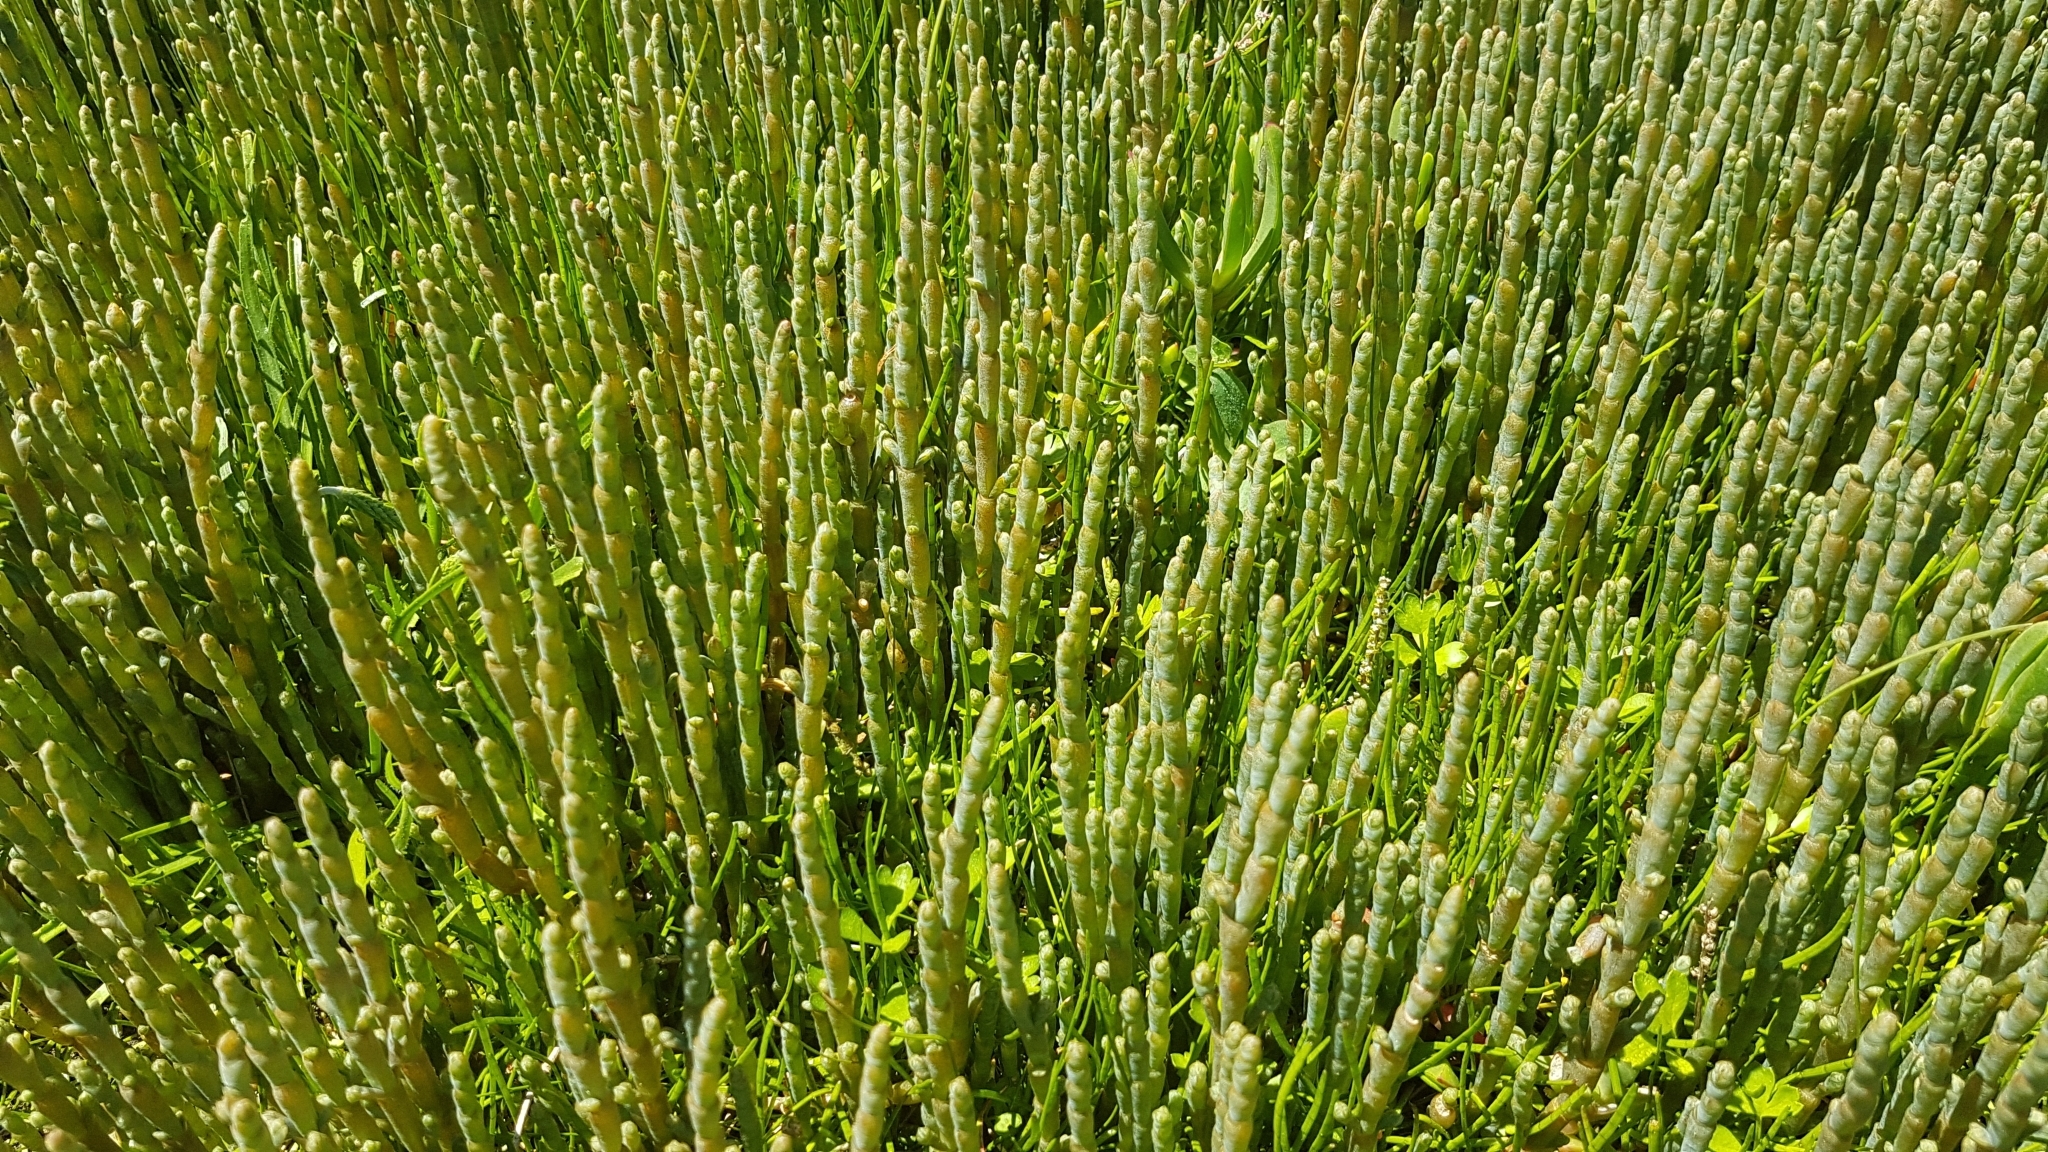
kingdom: Plantae
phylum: Tracheophyta
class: Magnoliopsida
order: Caryophyllales
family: Amaranthaceae
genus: Salicornia
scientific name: Salicornia quinqueflora
